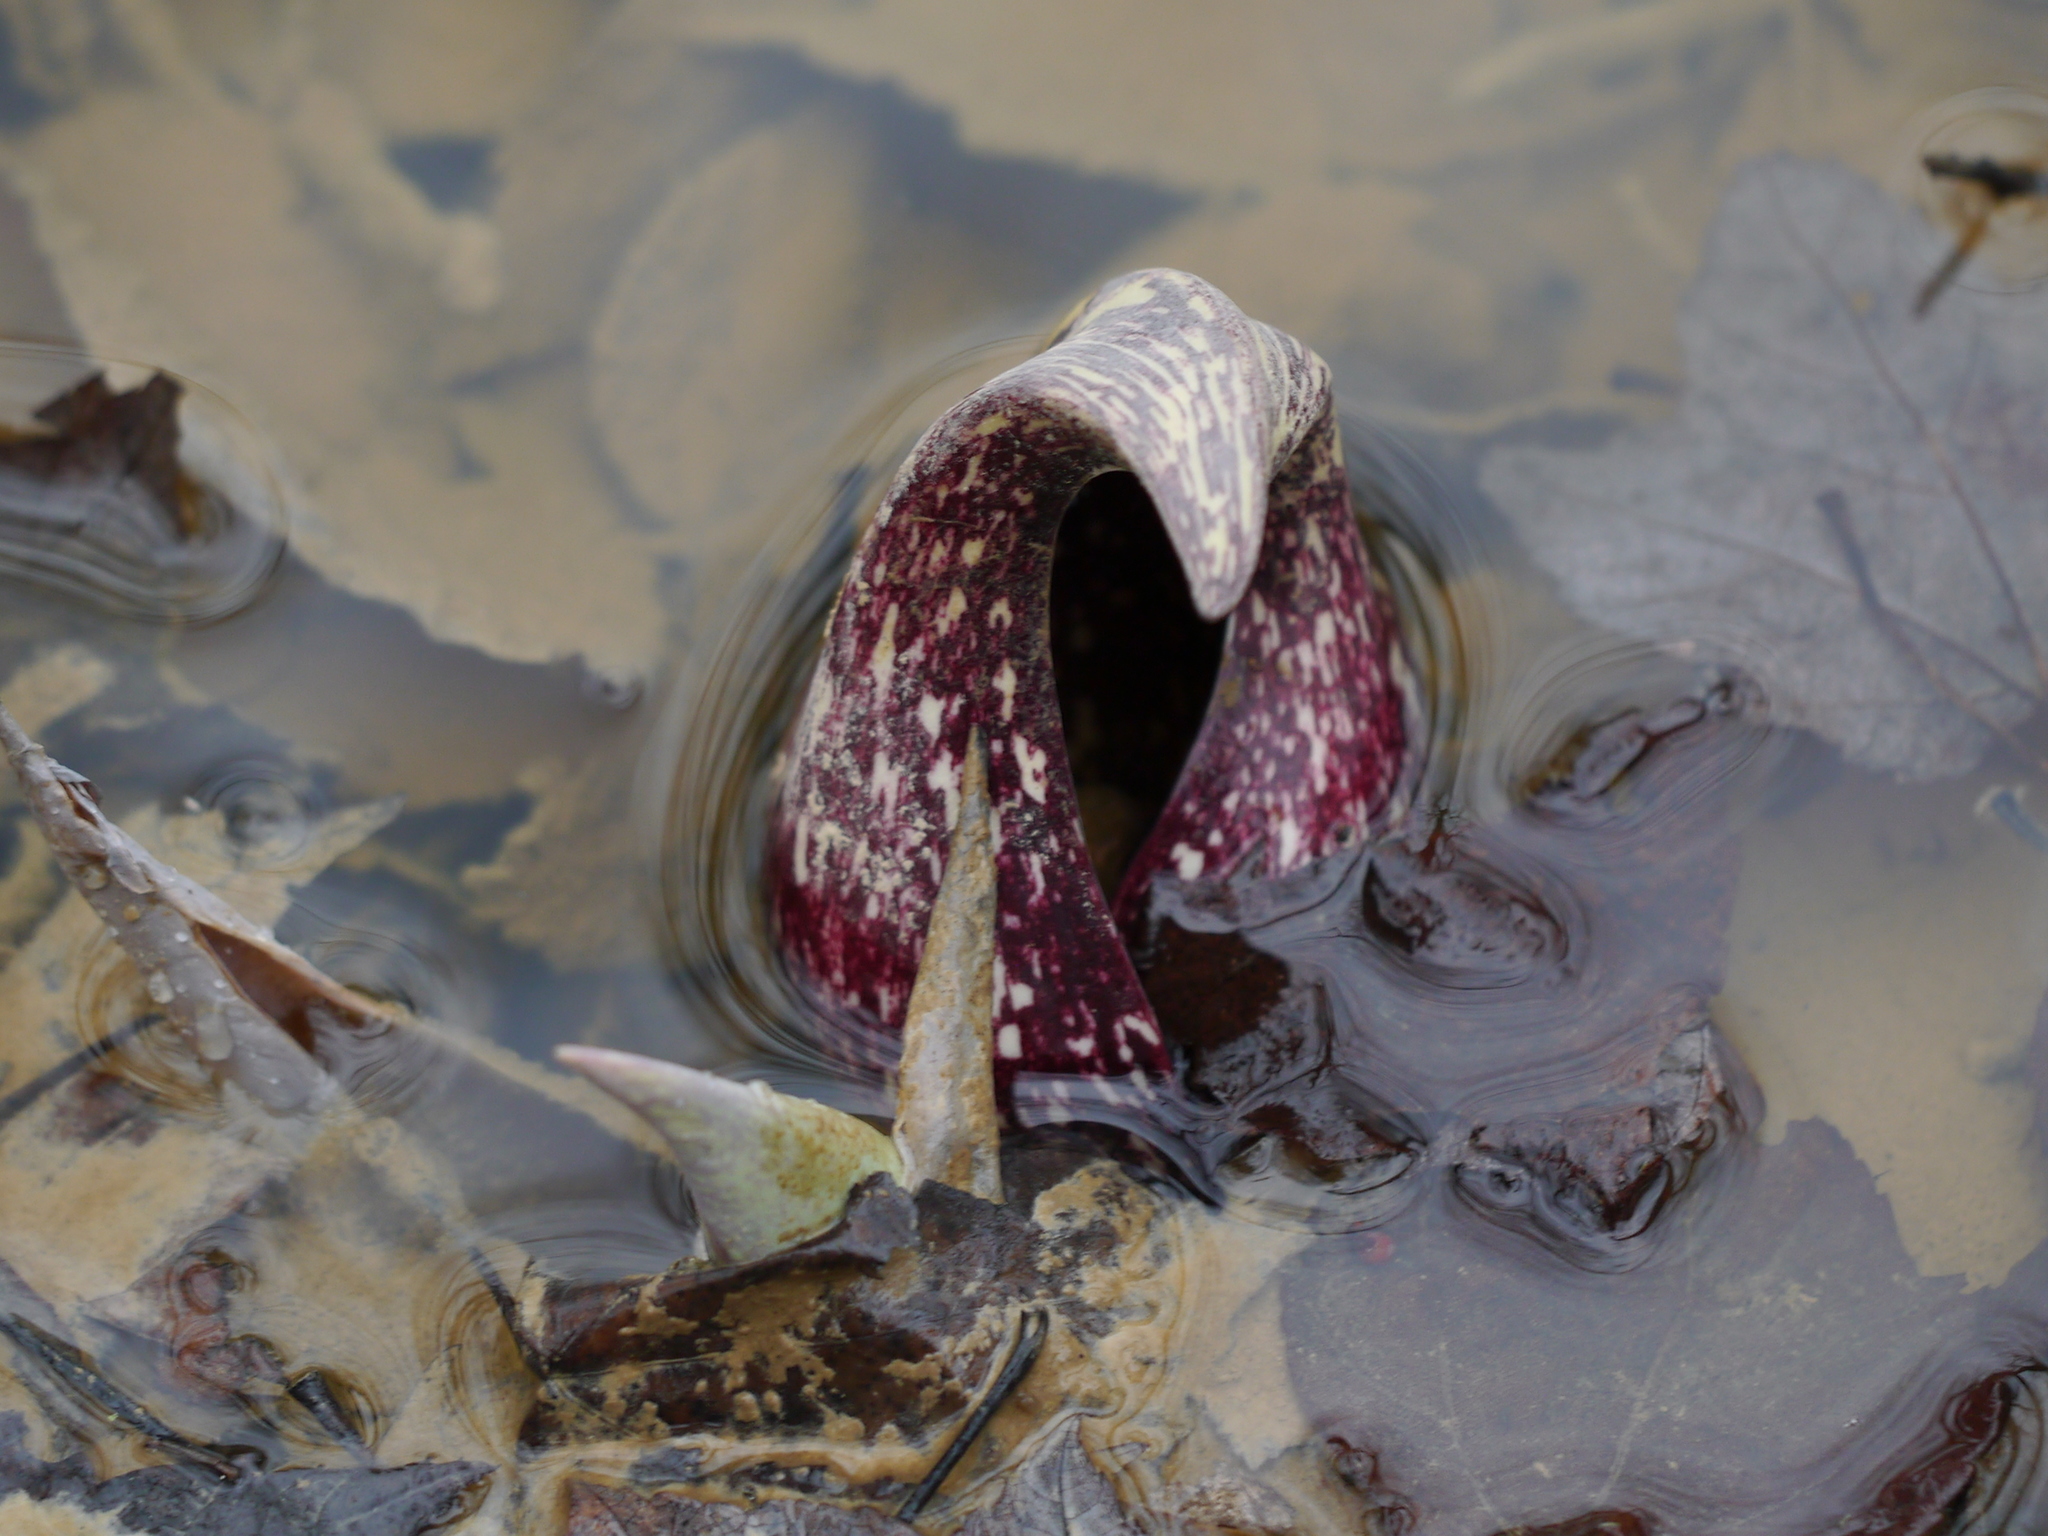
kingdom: Plantae
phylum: Tracheophyta
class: Liliopsida
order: Alismatales
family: Araceae
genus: Symplocarpus
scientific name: Symplocarpus foetidus
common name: Eastern skunk cabbage
